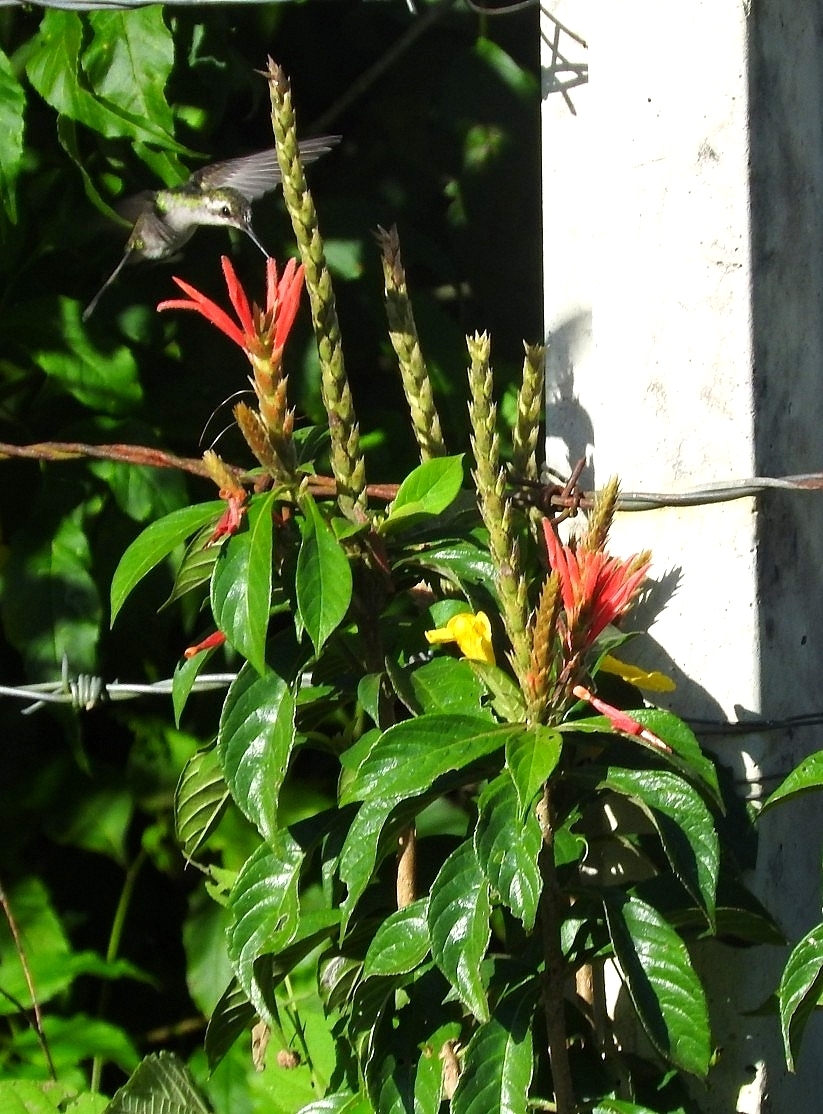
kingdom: Animalia
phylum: Chordata
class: Aves
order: Apodiformes
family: Trochilidae
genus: Cynanthus
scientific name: Cynanthus canivetii
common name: Canivet's emerald
